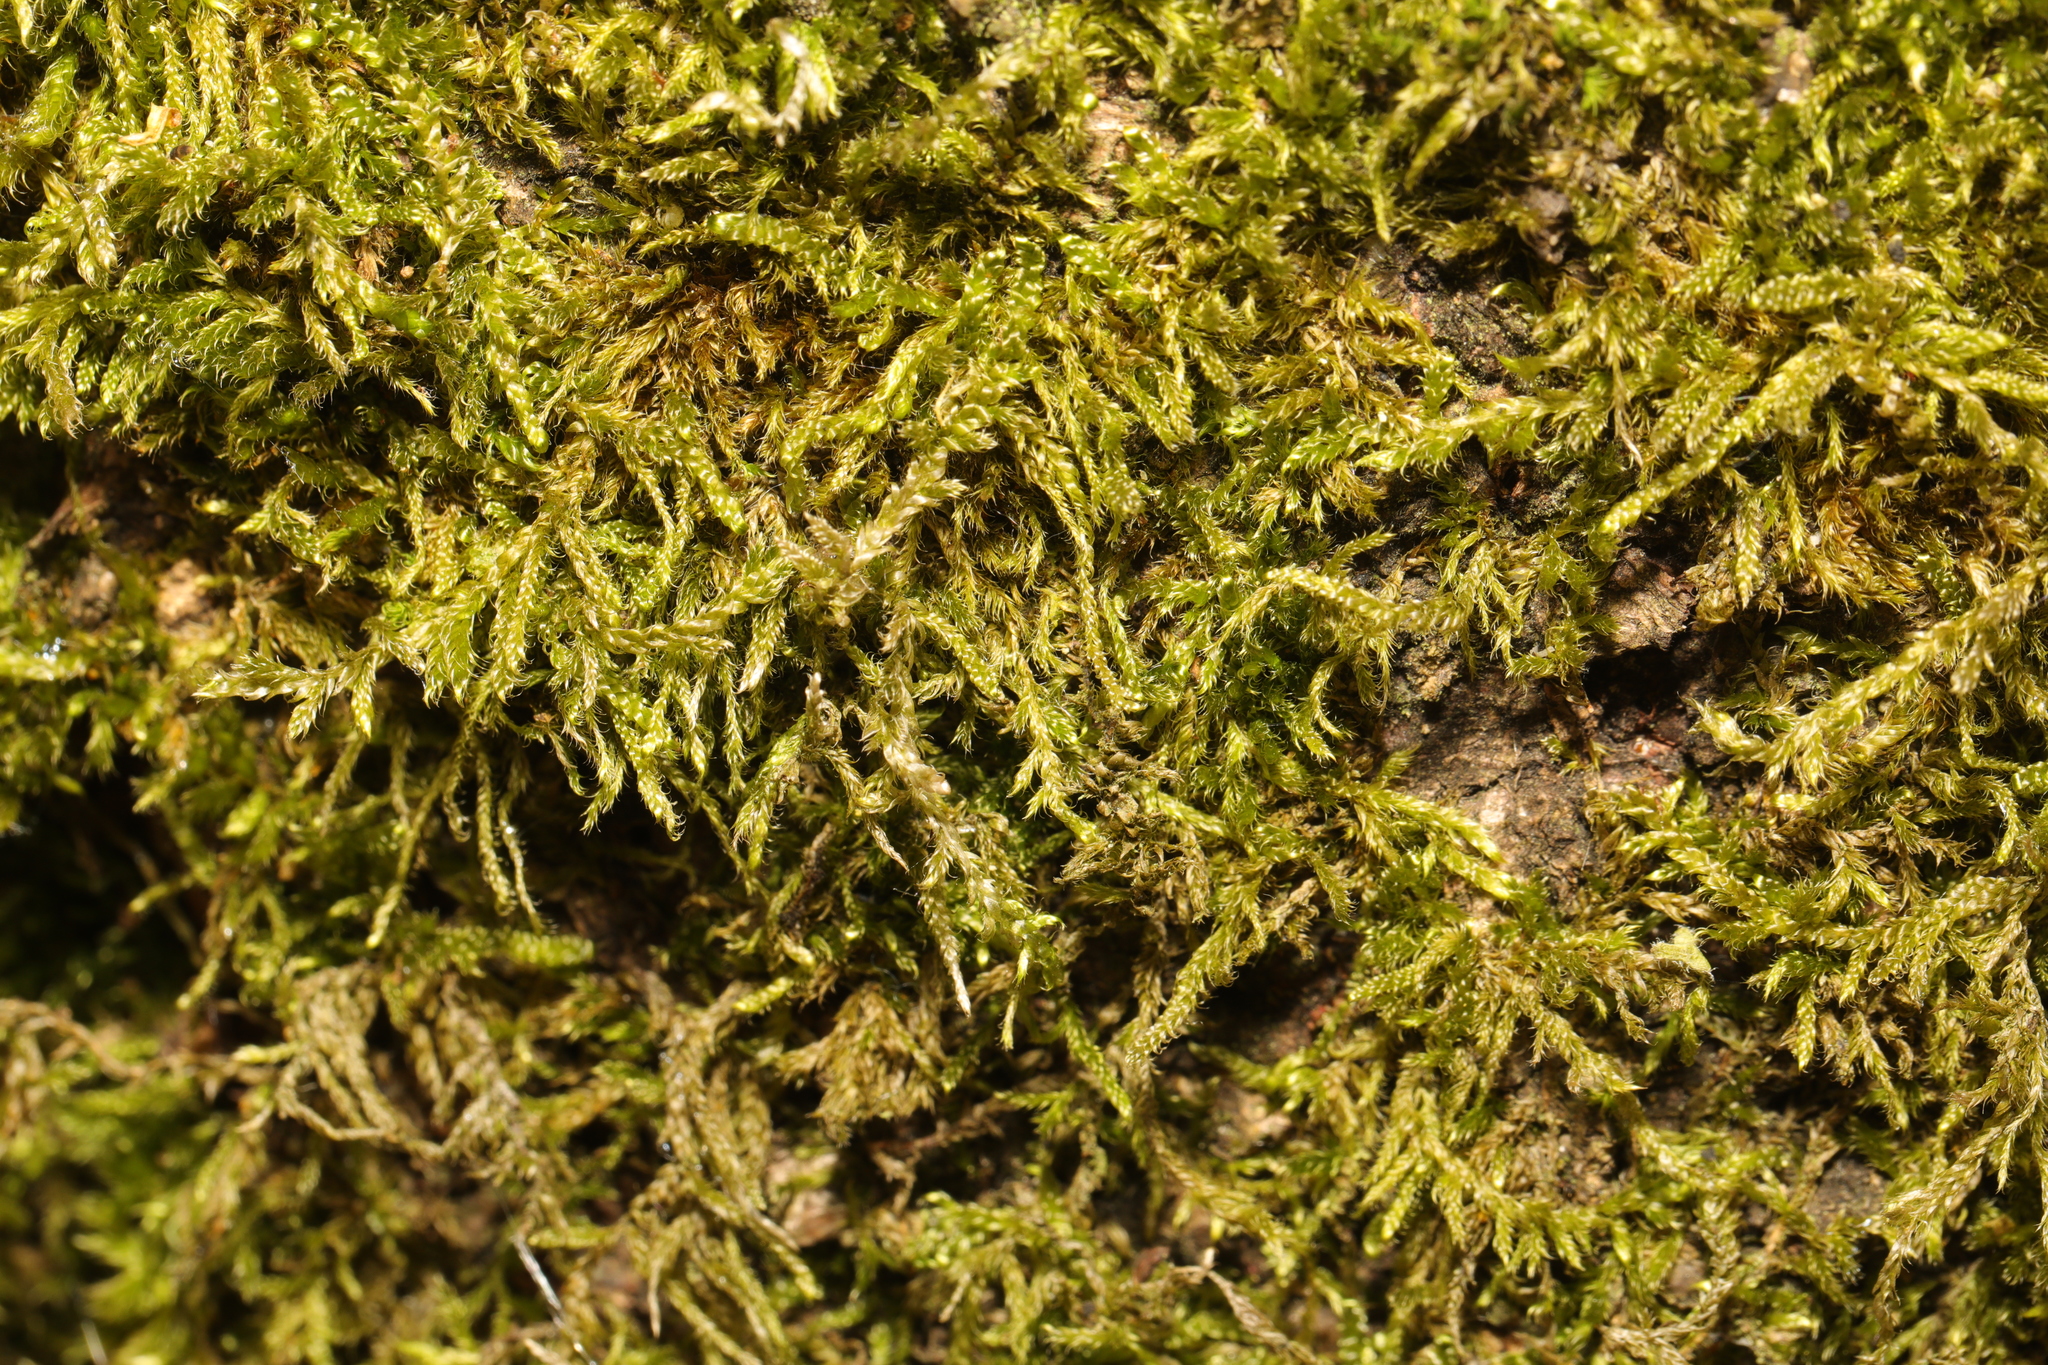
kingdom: Plantae
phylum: Bryophyta
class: Bryopsida
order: Hypnales
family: Hypnaceae
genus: Hypnum
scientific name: Hypnum cupressiforme
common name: Cypress-leaved plait-moss
